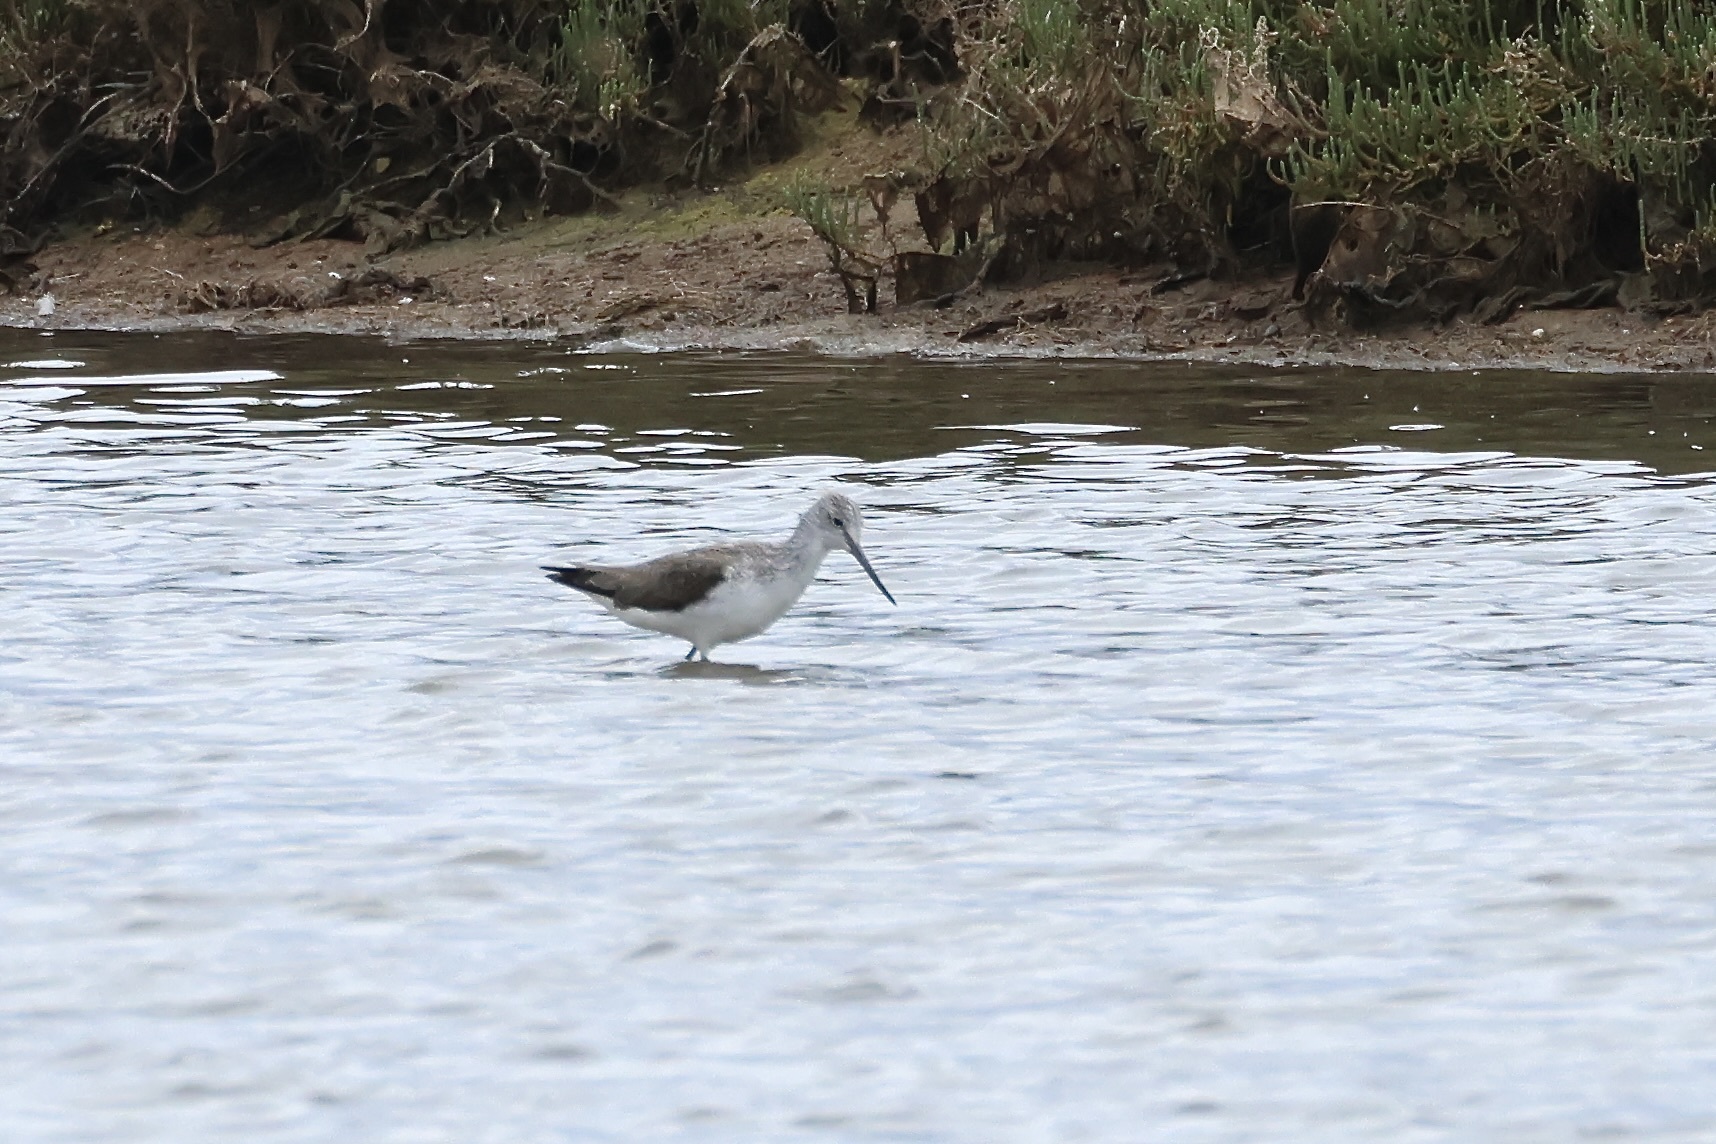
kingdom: Animalia
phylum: Chordata
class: Aves
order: Charadriiformes
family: Scolopacidae
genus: Tringa
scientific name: Tringa nebularia
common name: Common greenshank
